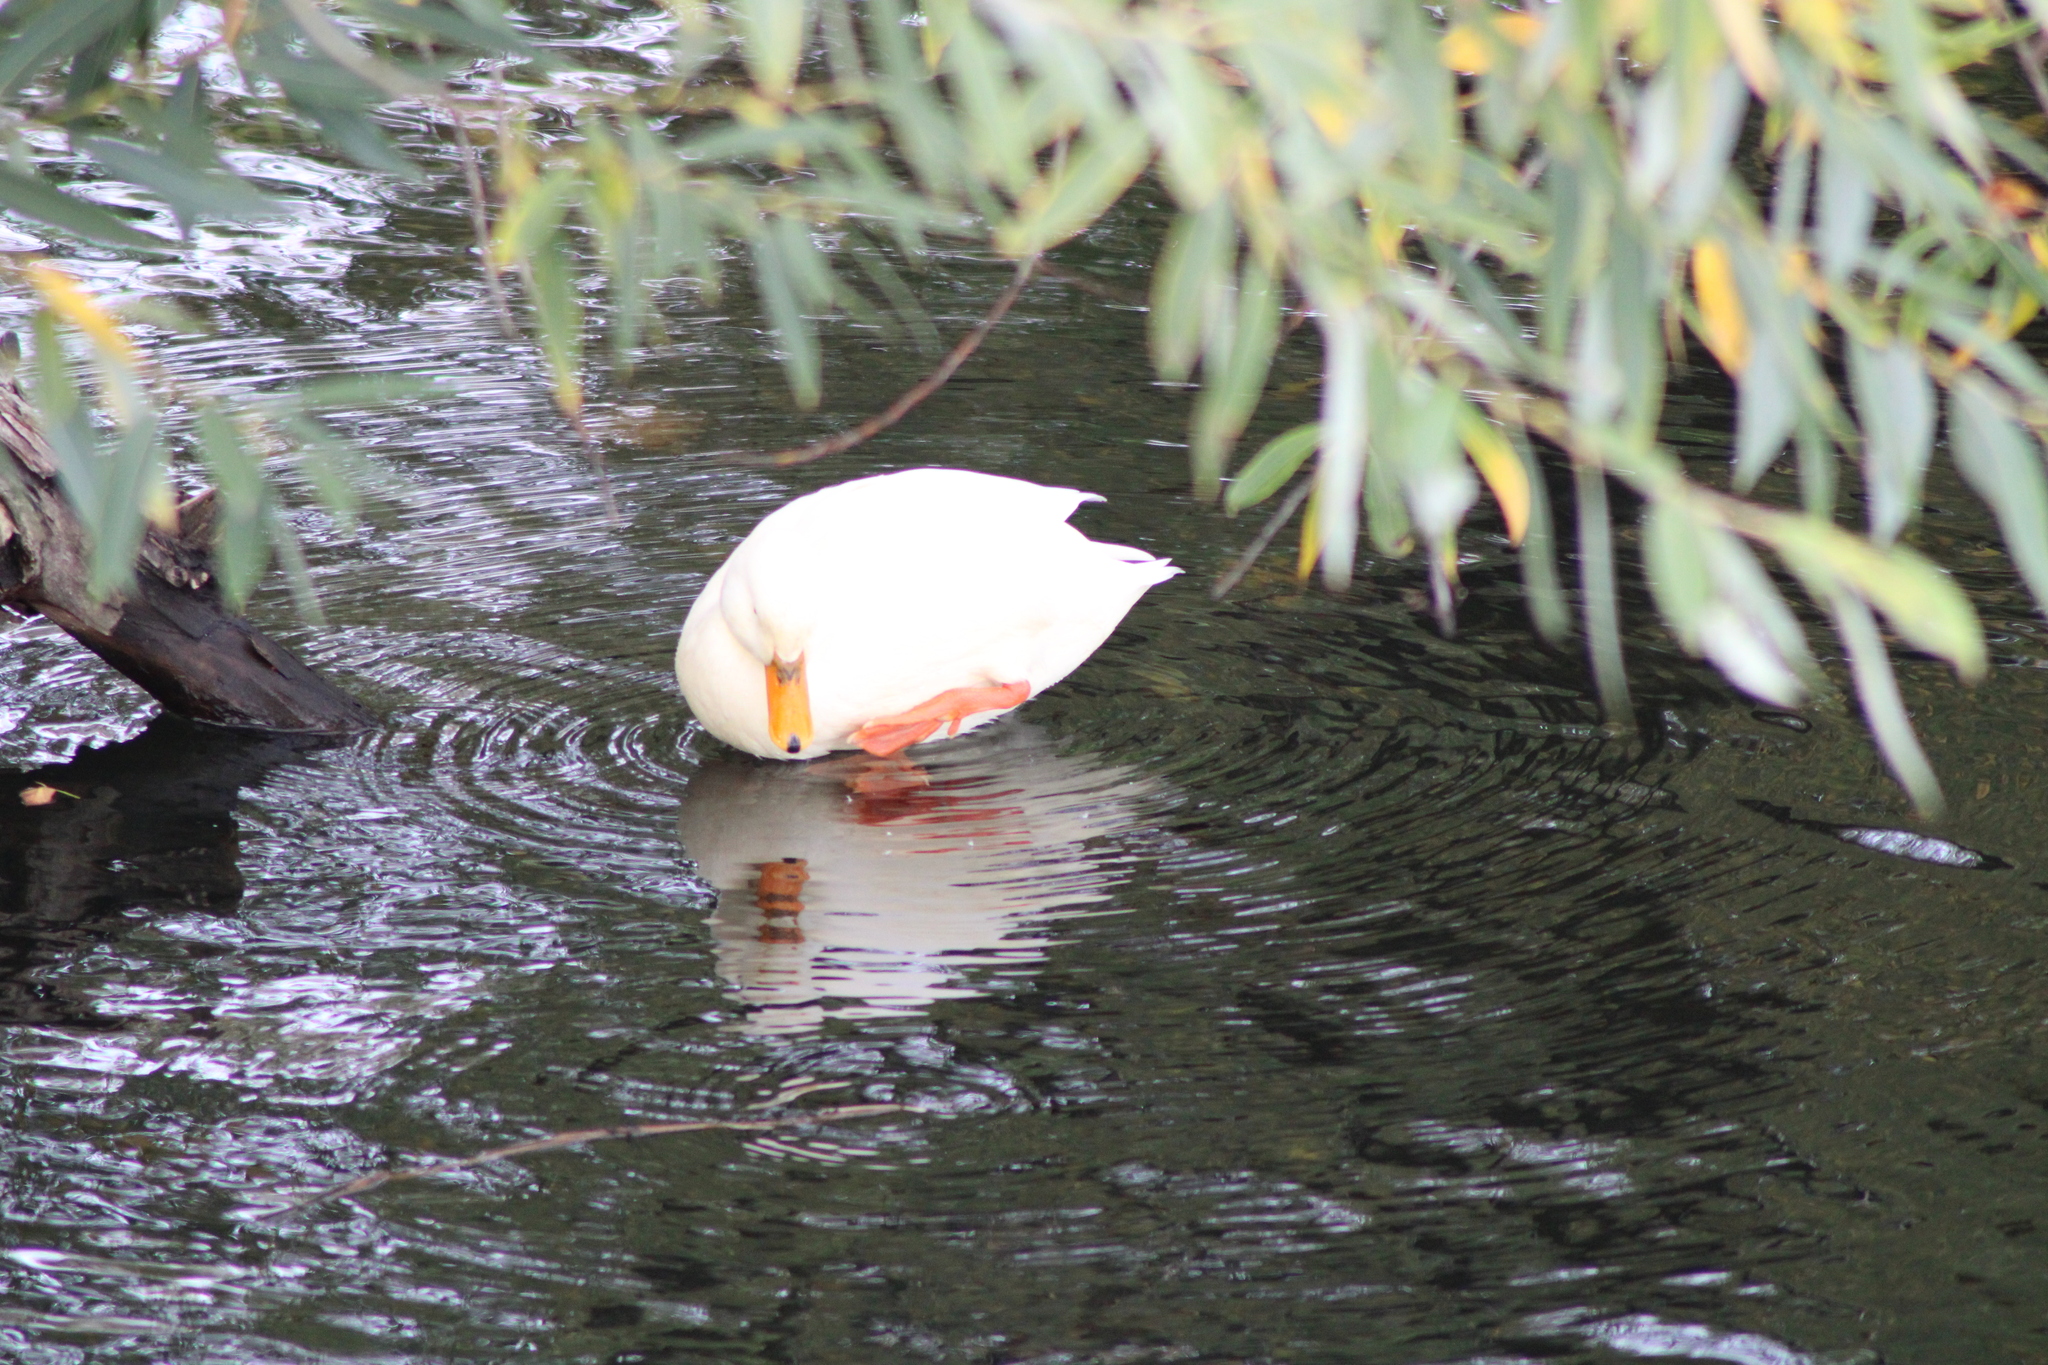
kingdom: Animalia
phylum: Chordata
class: Aves
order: Anseriformes
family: Anatidae
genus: Anas
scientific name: Anas platyrhynchos
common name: Mallard
